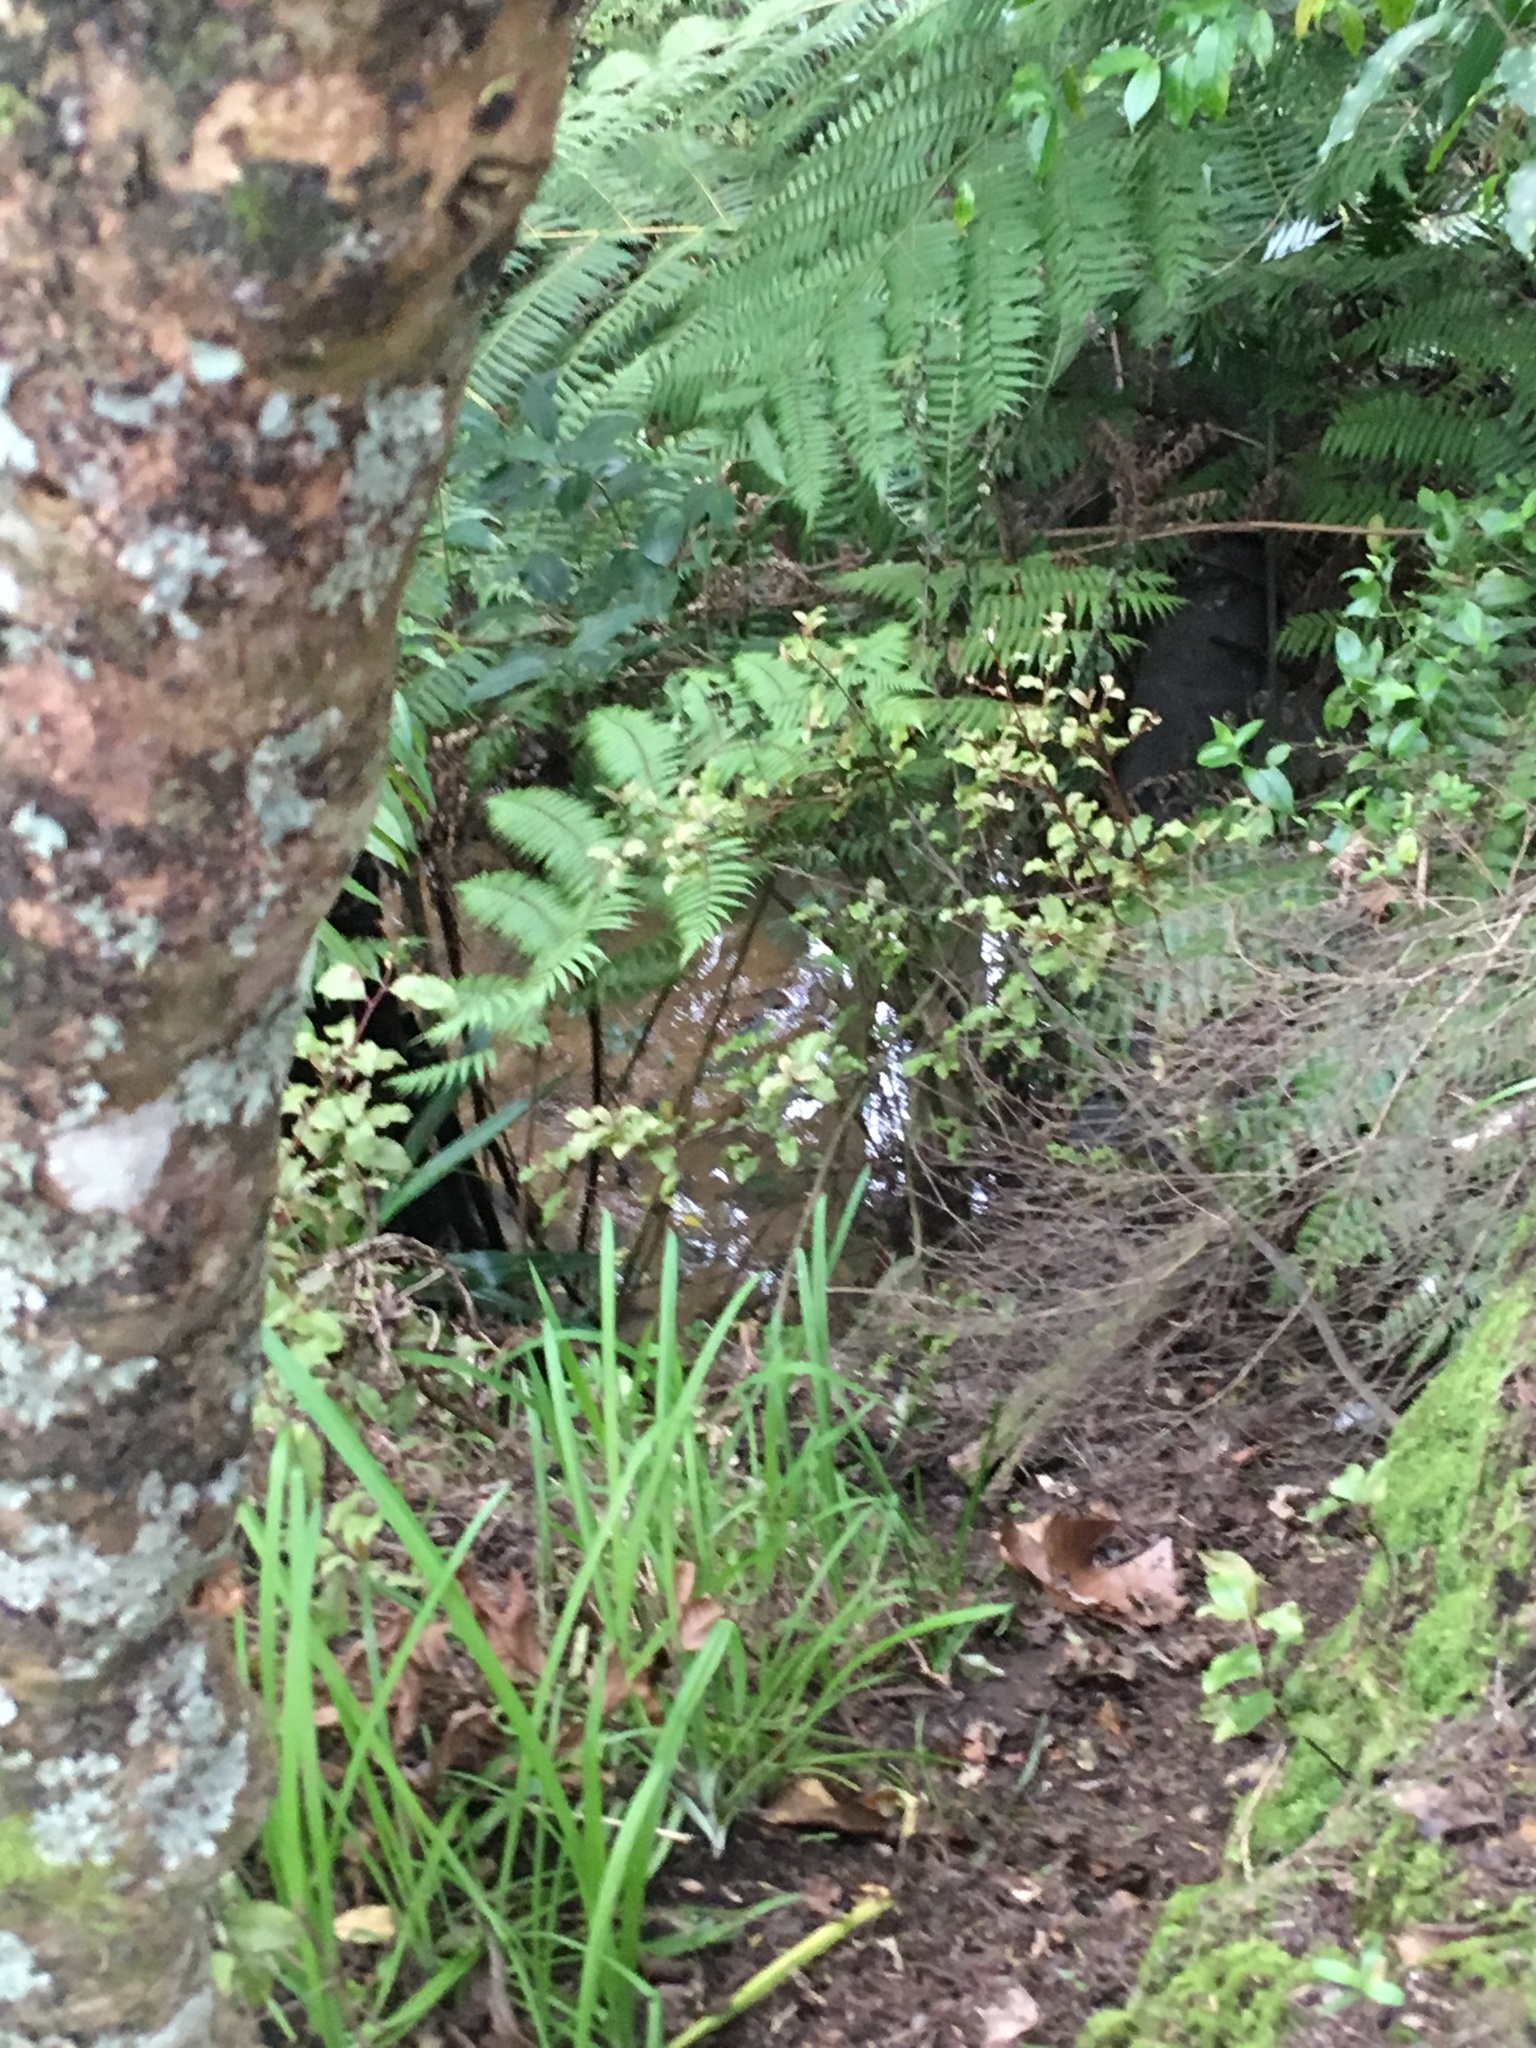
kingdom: Plantae
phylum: Tracheophyta
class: Magnoliopsida
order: Lamiales
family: Oleaceae
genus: Ligustrum
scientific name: Ligustrum lucidum
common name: Glossy privet
